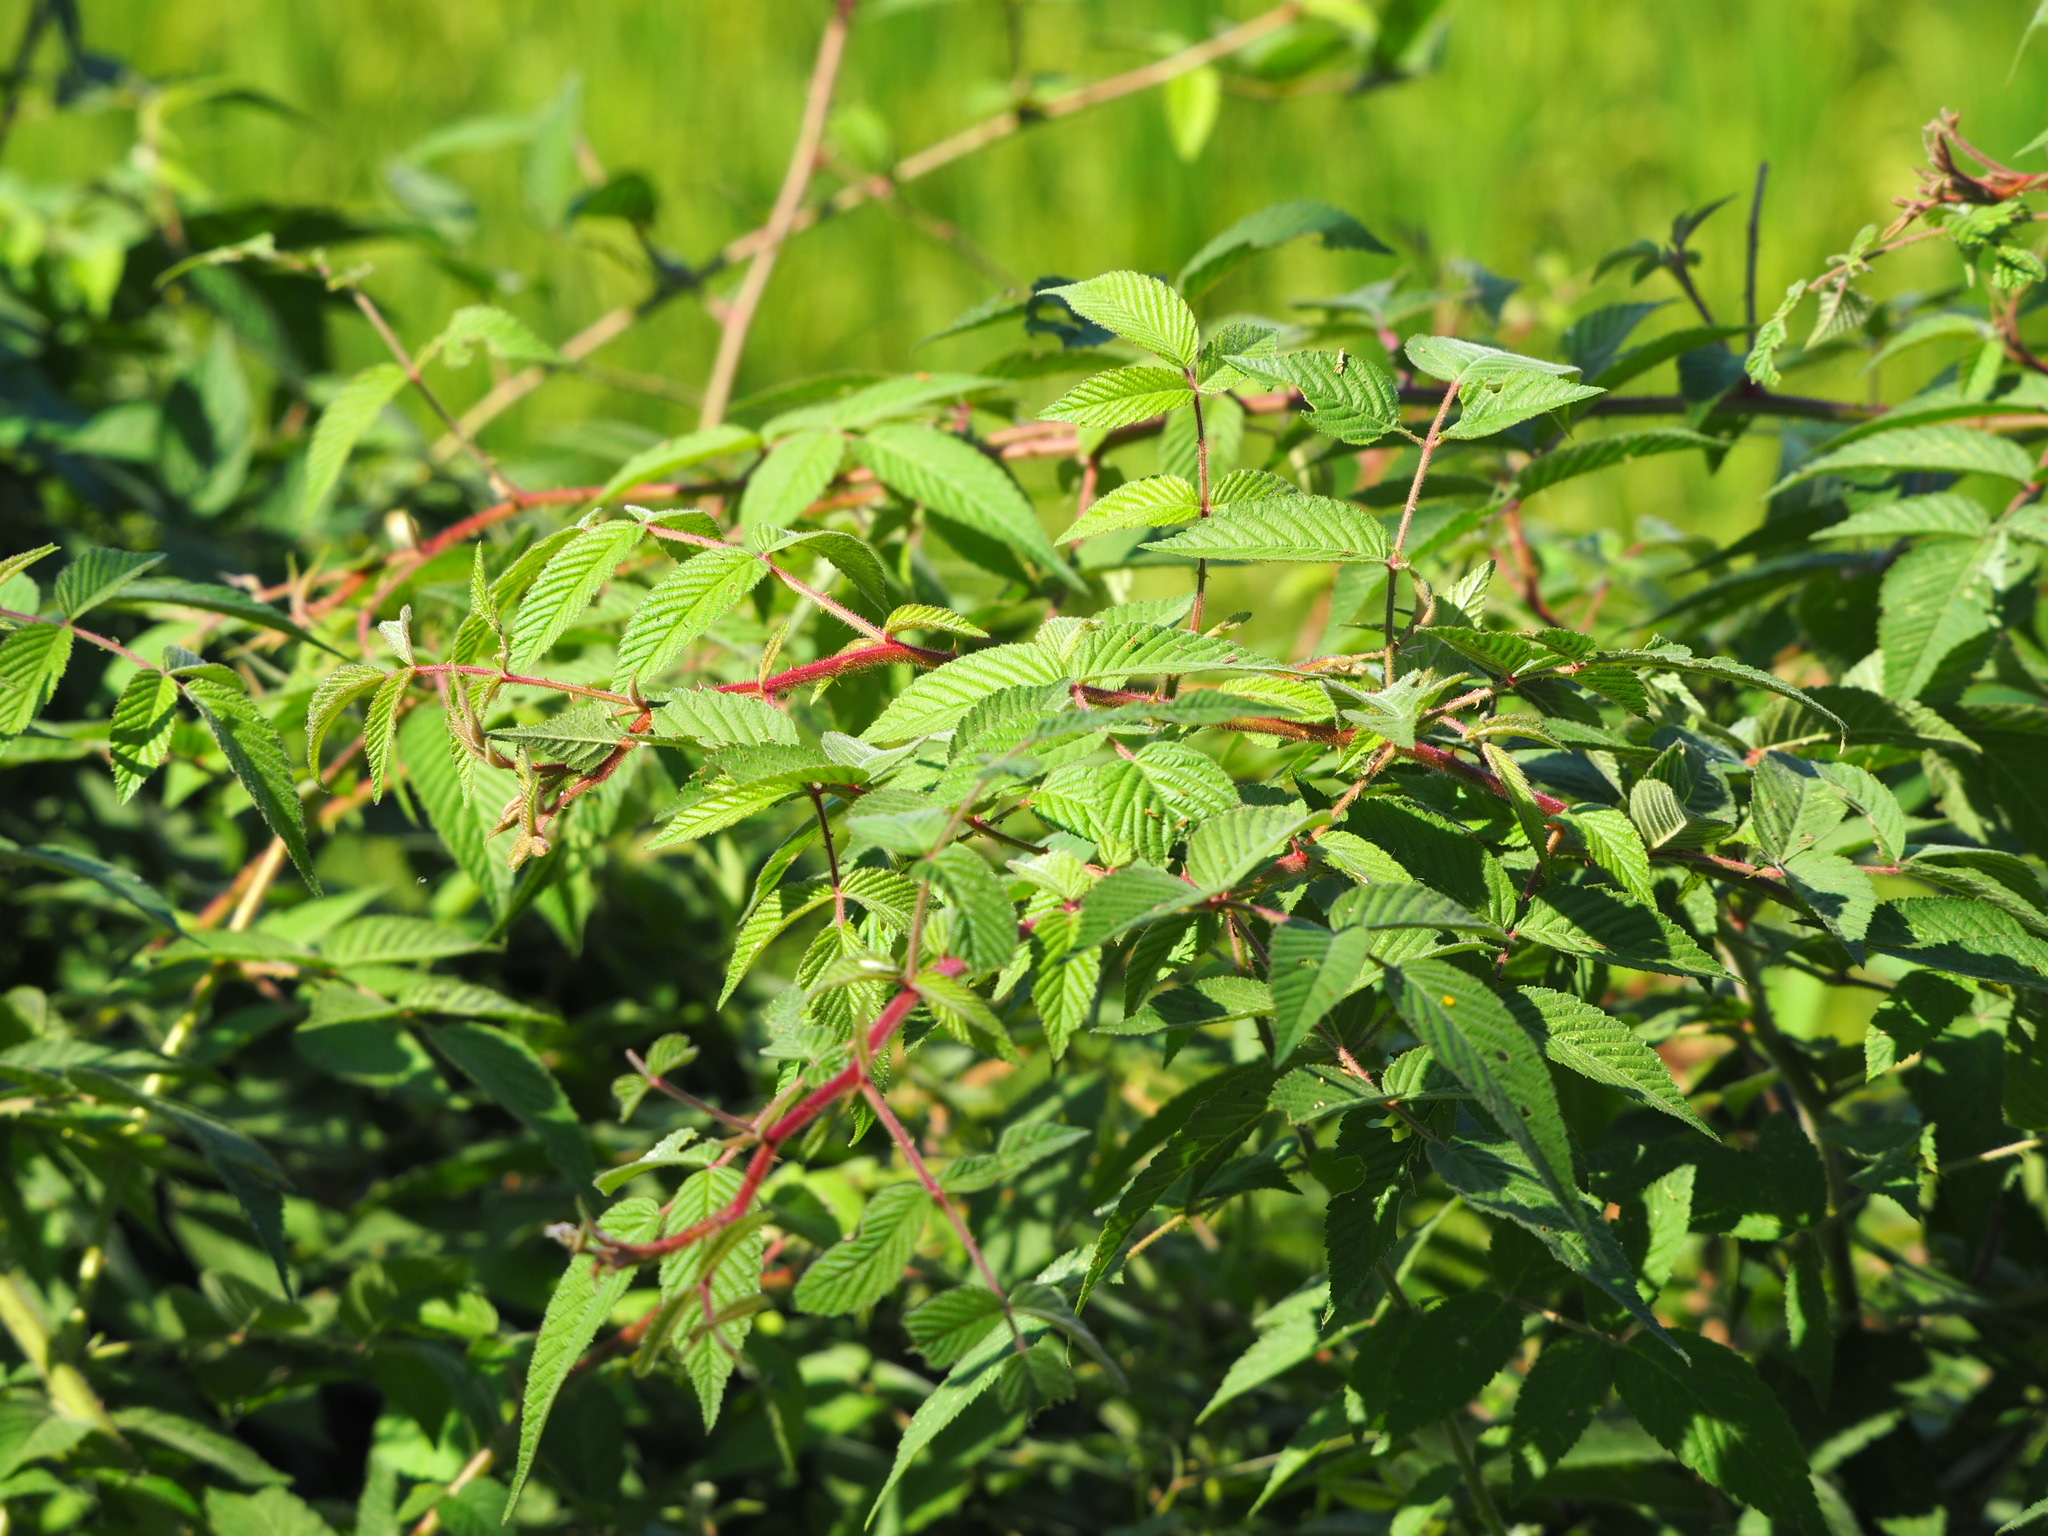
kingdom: Plantae
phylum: Tracheophyta
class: Magnoliopsida
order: Rosales
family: Rosaceae
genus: Rubus
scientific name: Rubus croceacanthus
